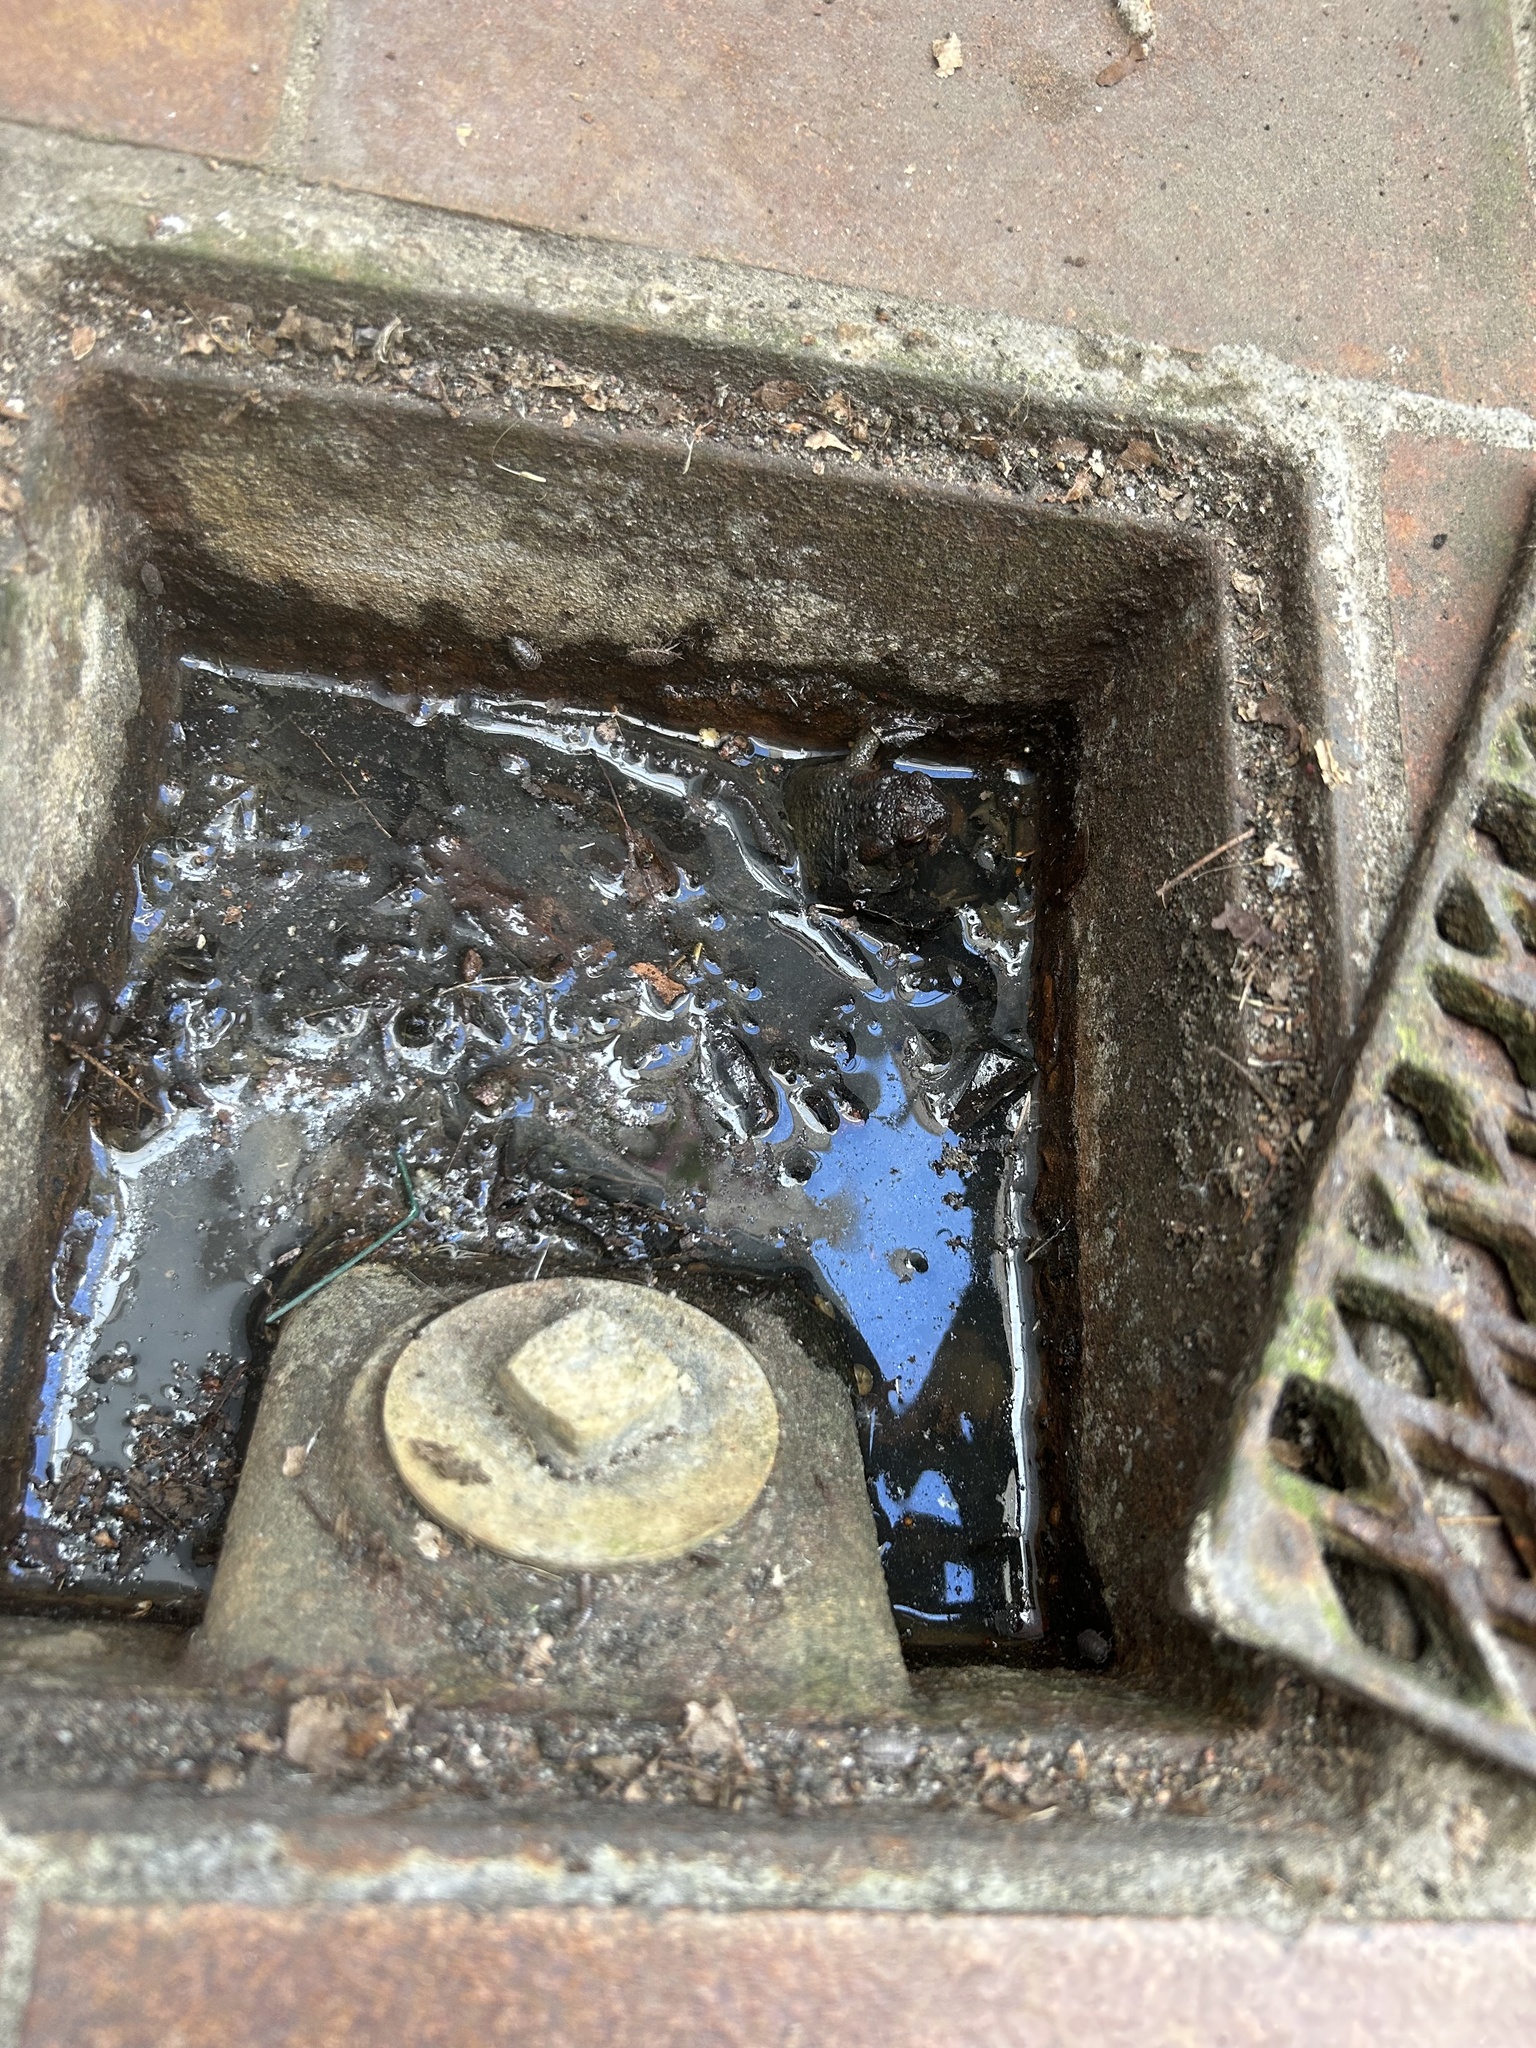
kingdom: Animalia
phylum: Chordata
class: Amphibia
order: Anura
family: Bufonidae
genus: Bufo
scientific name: Bufo bufo
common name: Common toad
